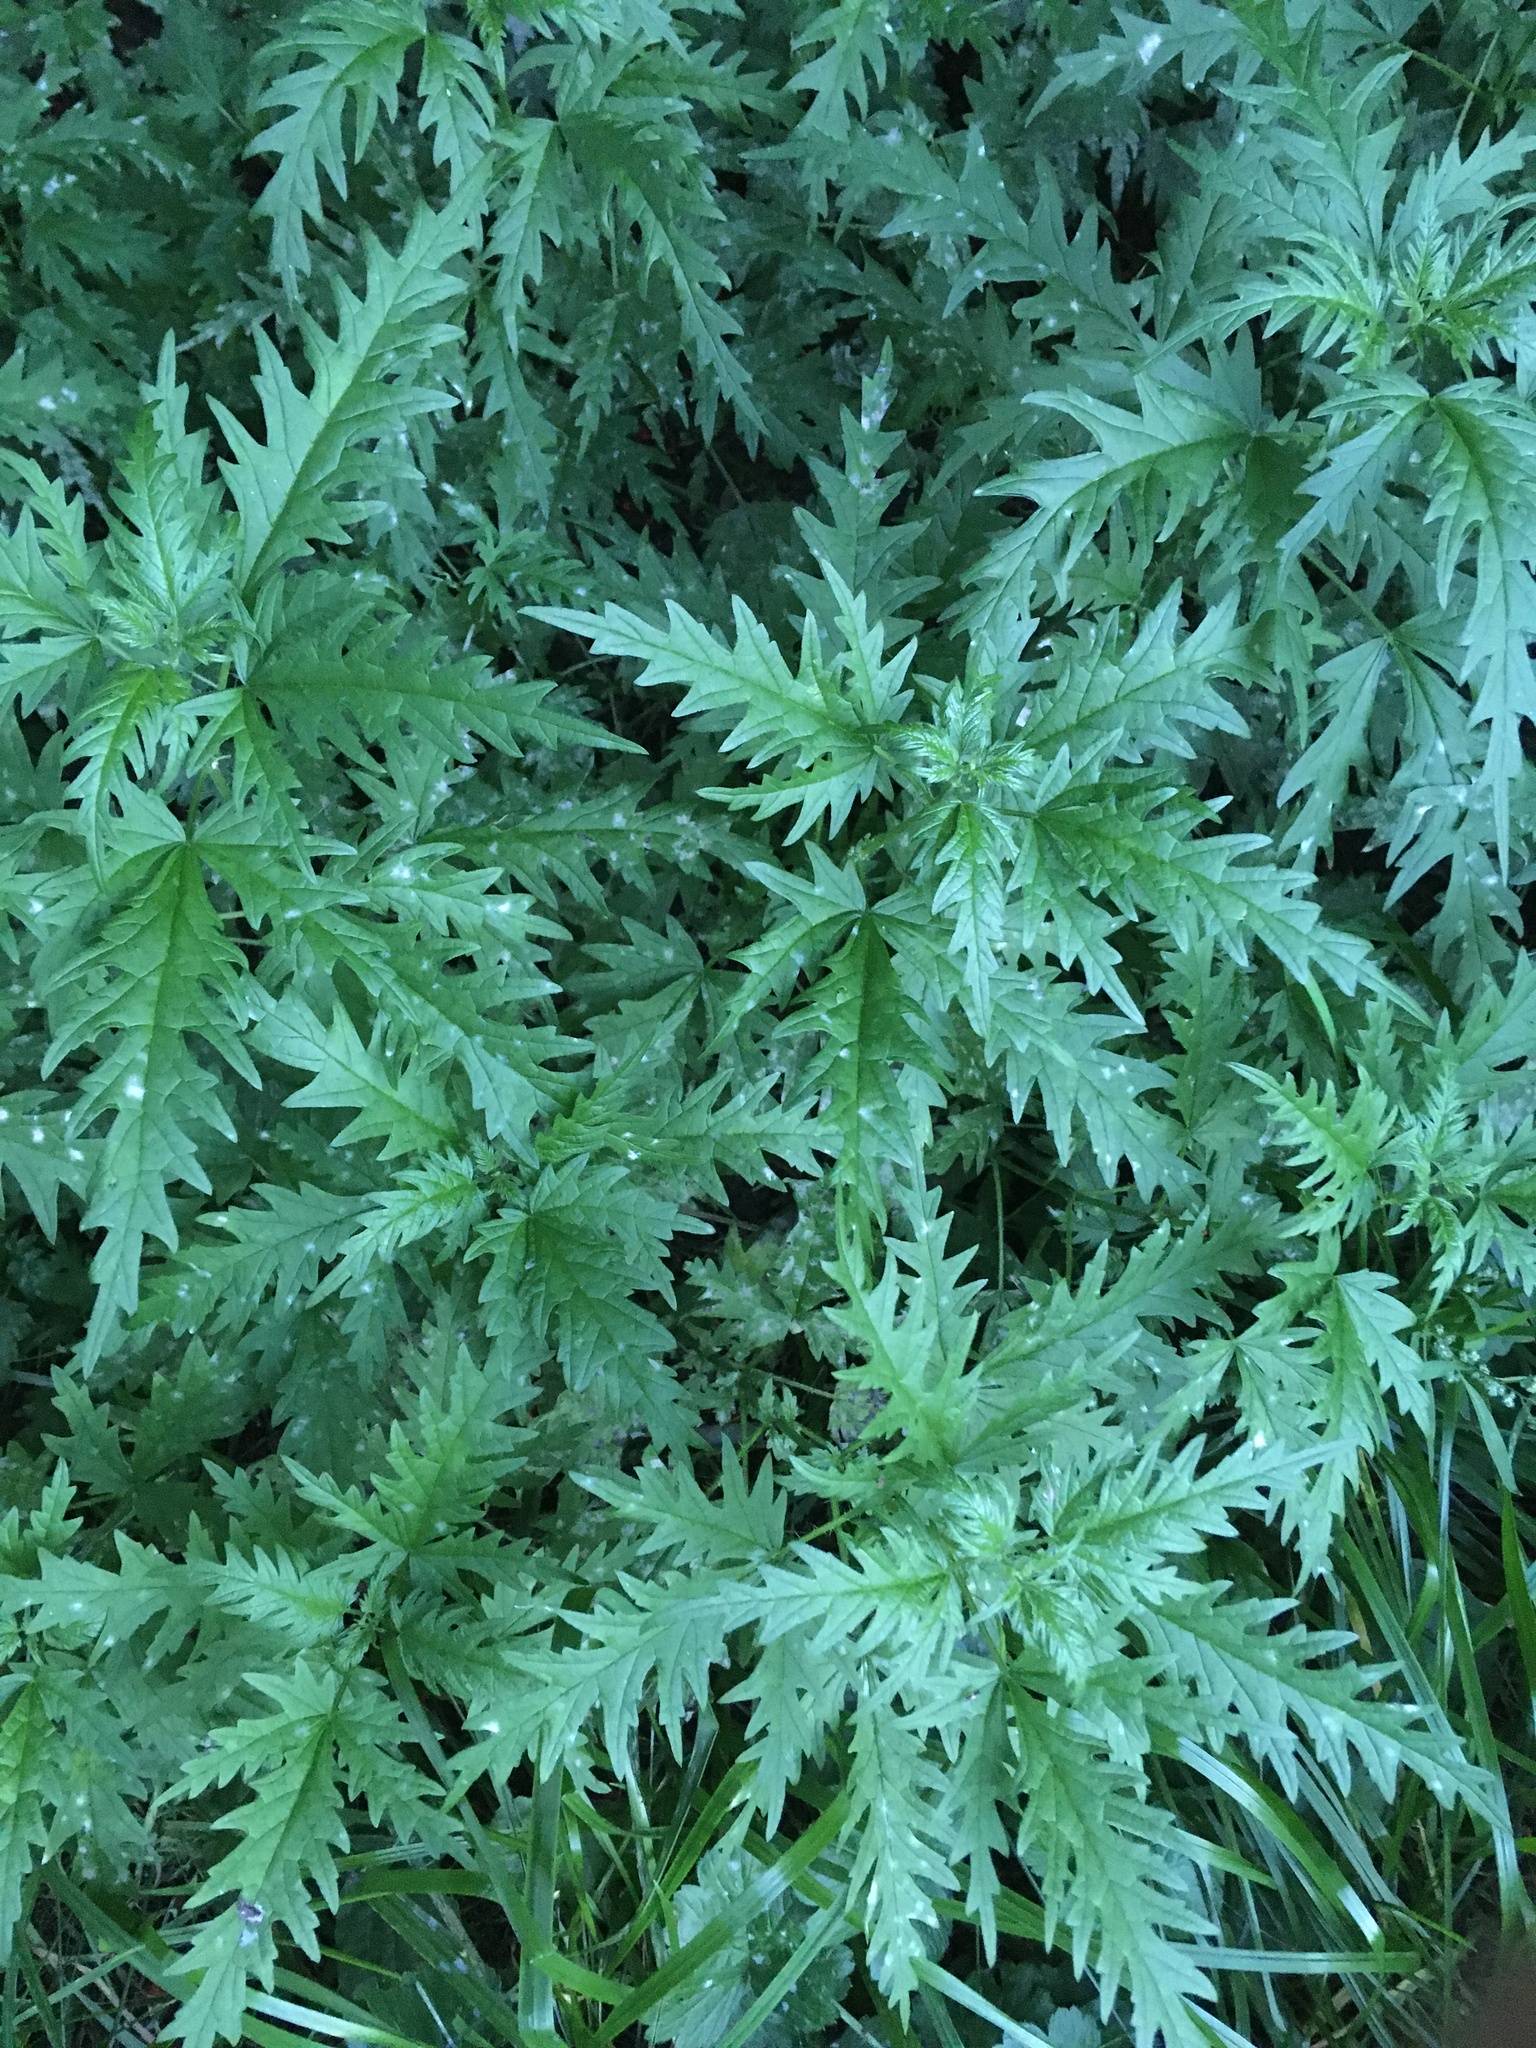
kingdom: Plantae
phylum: Tracheophyta
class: Magnoliopsida
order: Rosales
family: Urticaceae
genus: Urtica
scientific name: Urtica cannabina
